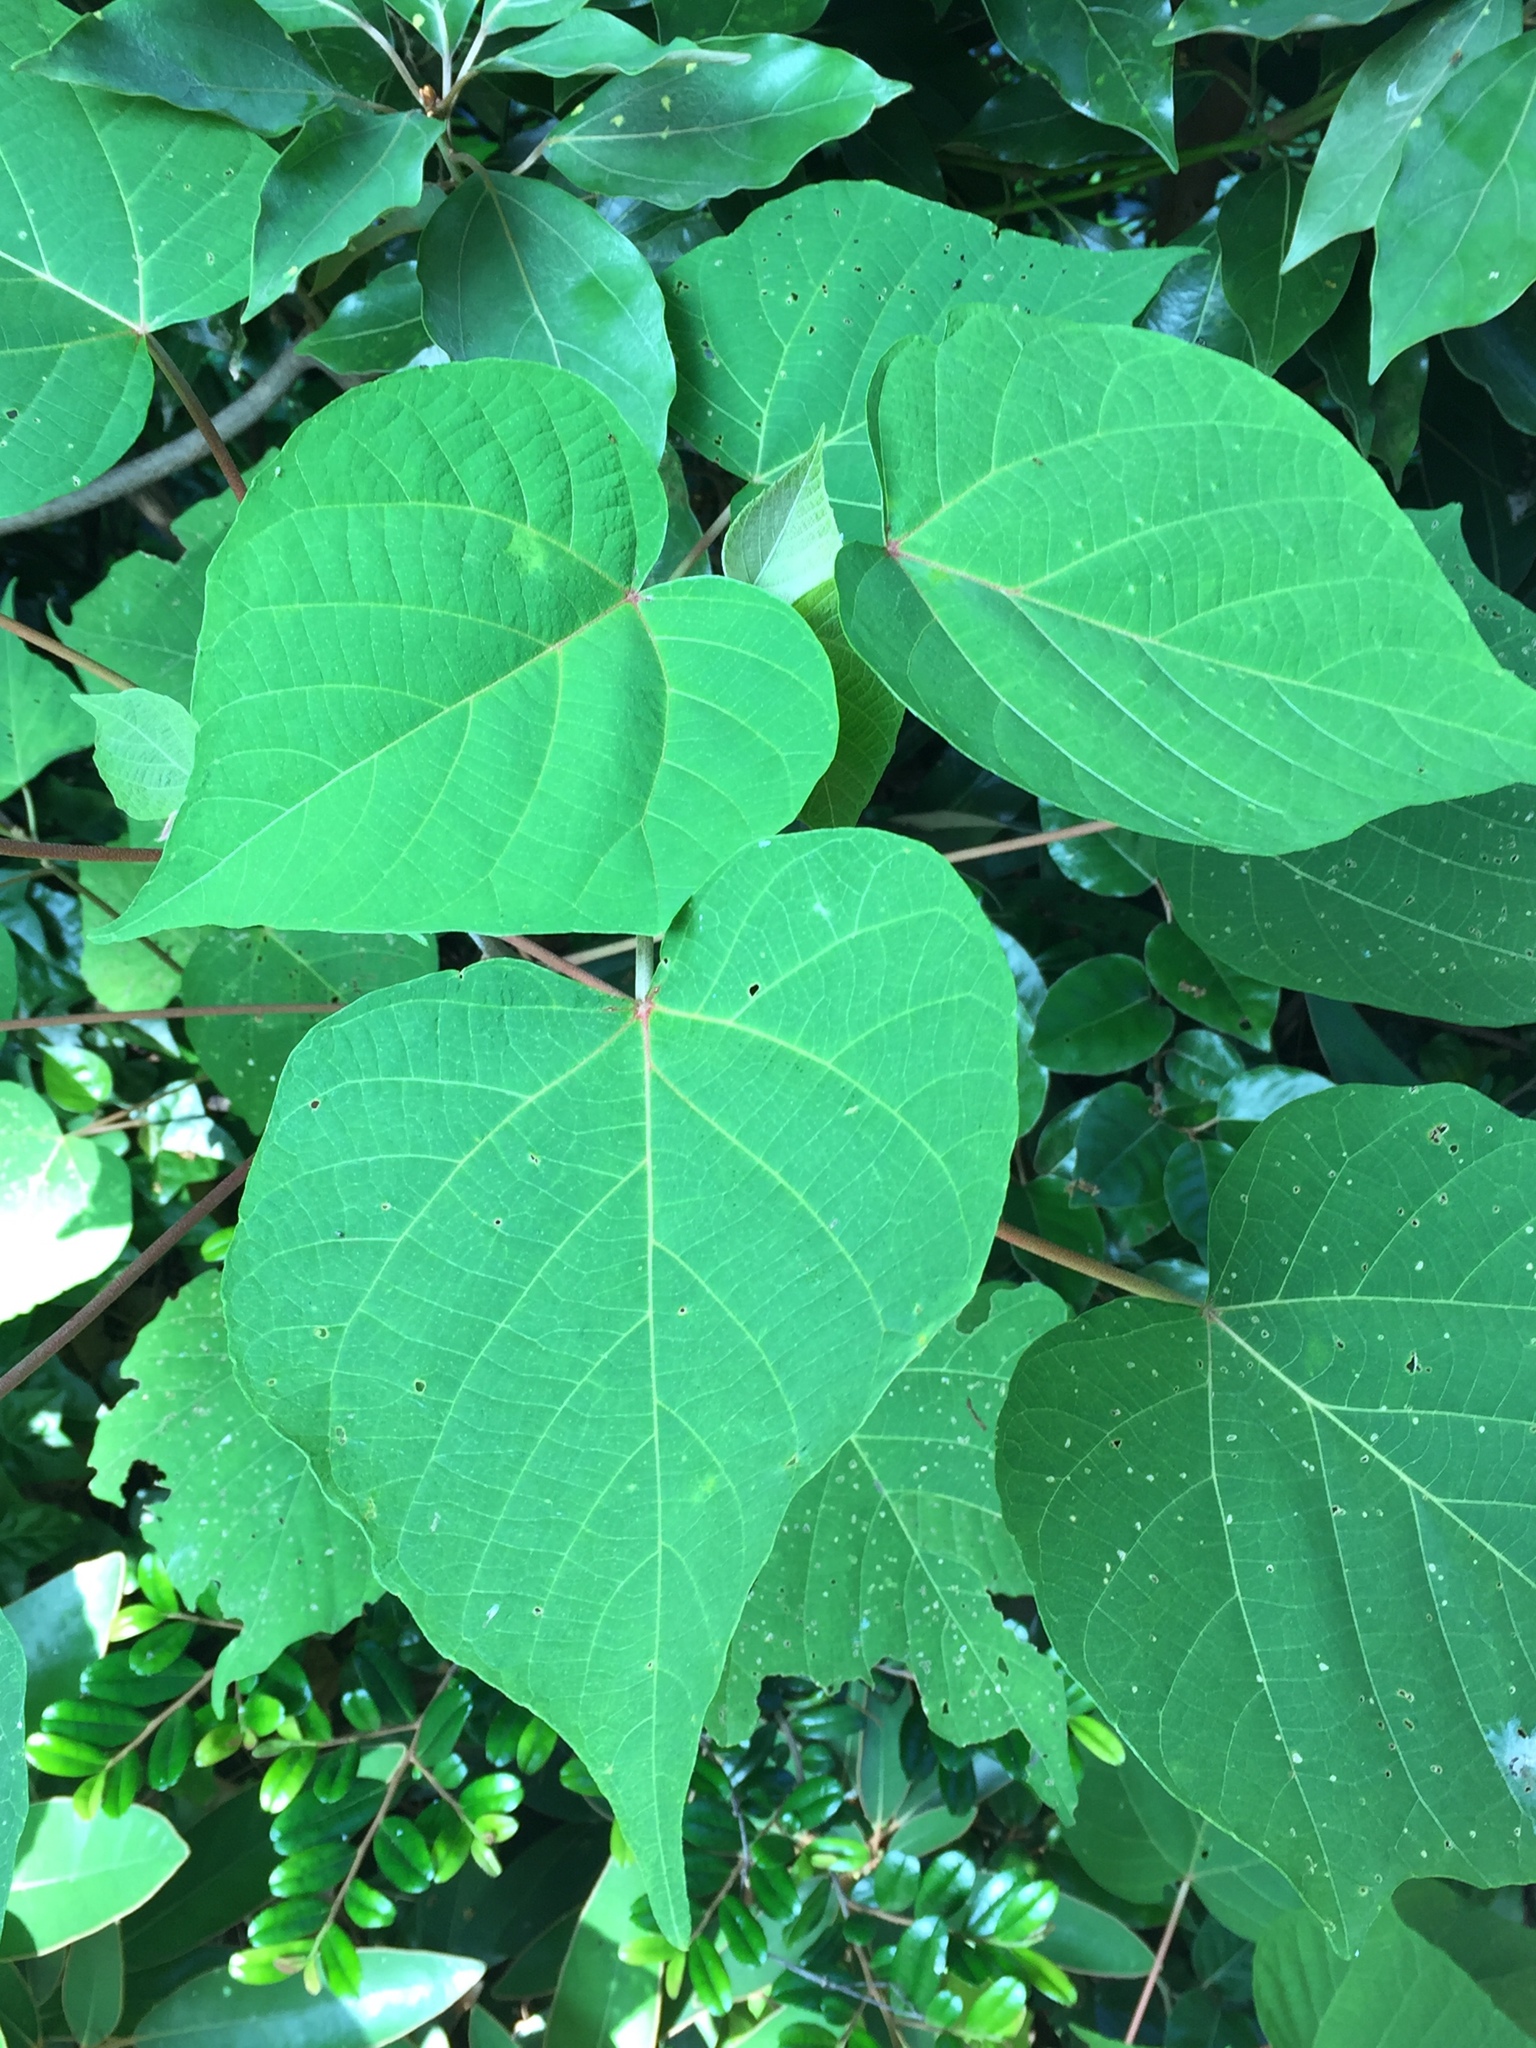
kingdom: Plantae
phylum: Tracheophyta
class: Magnoliopsida
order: Malpighiales
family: Euphorbiaceae
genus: Mallotus
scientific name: Mallotus japonicus
